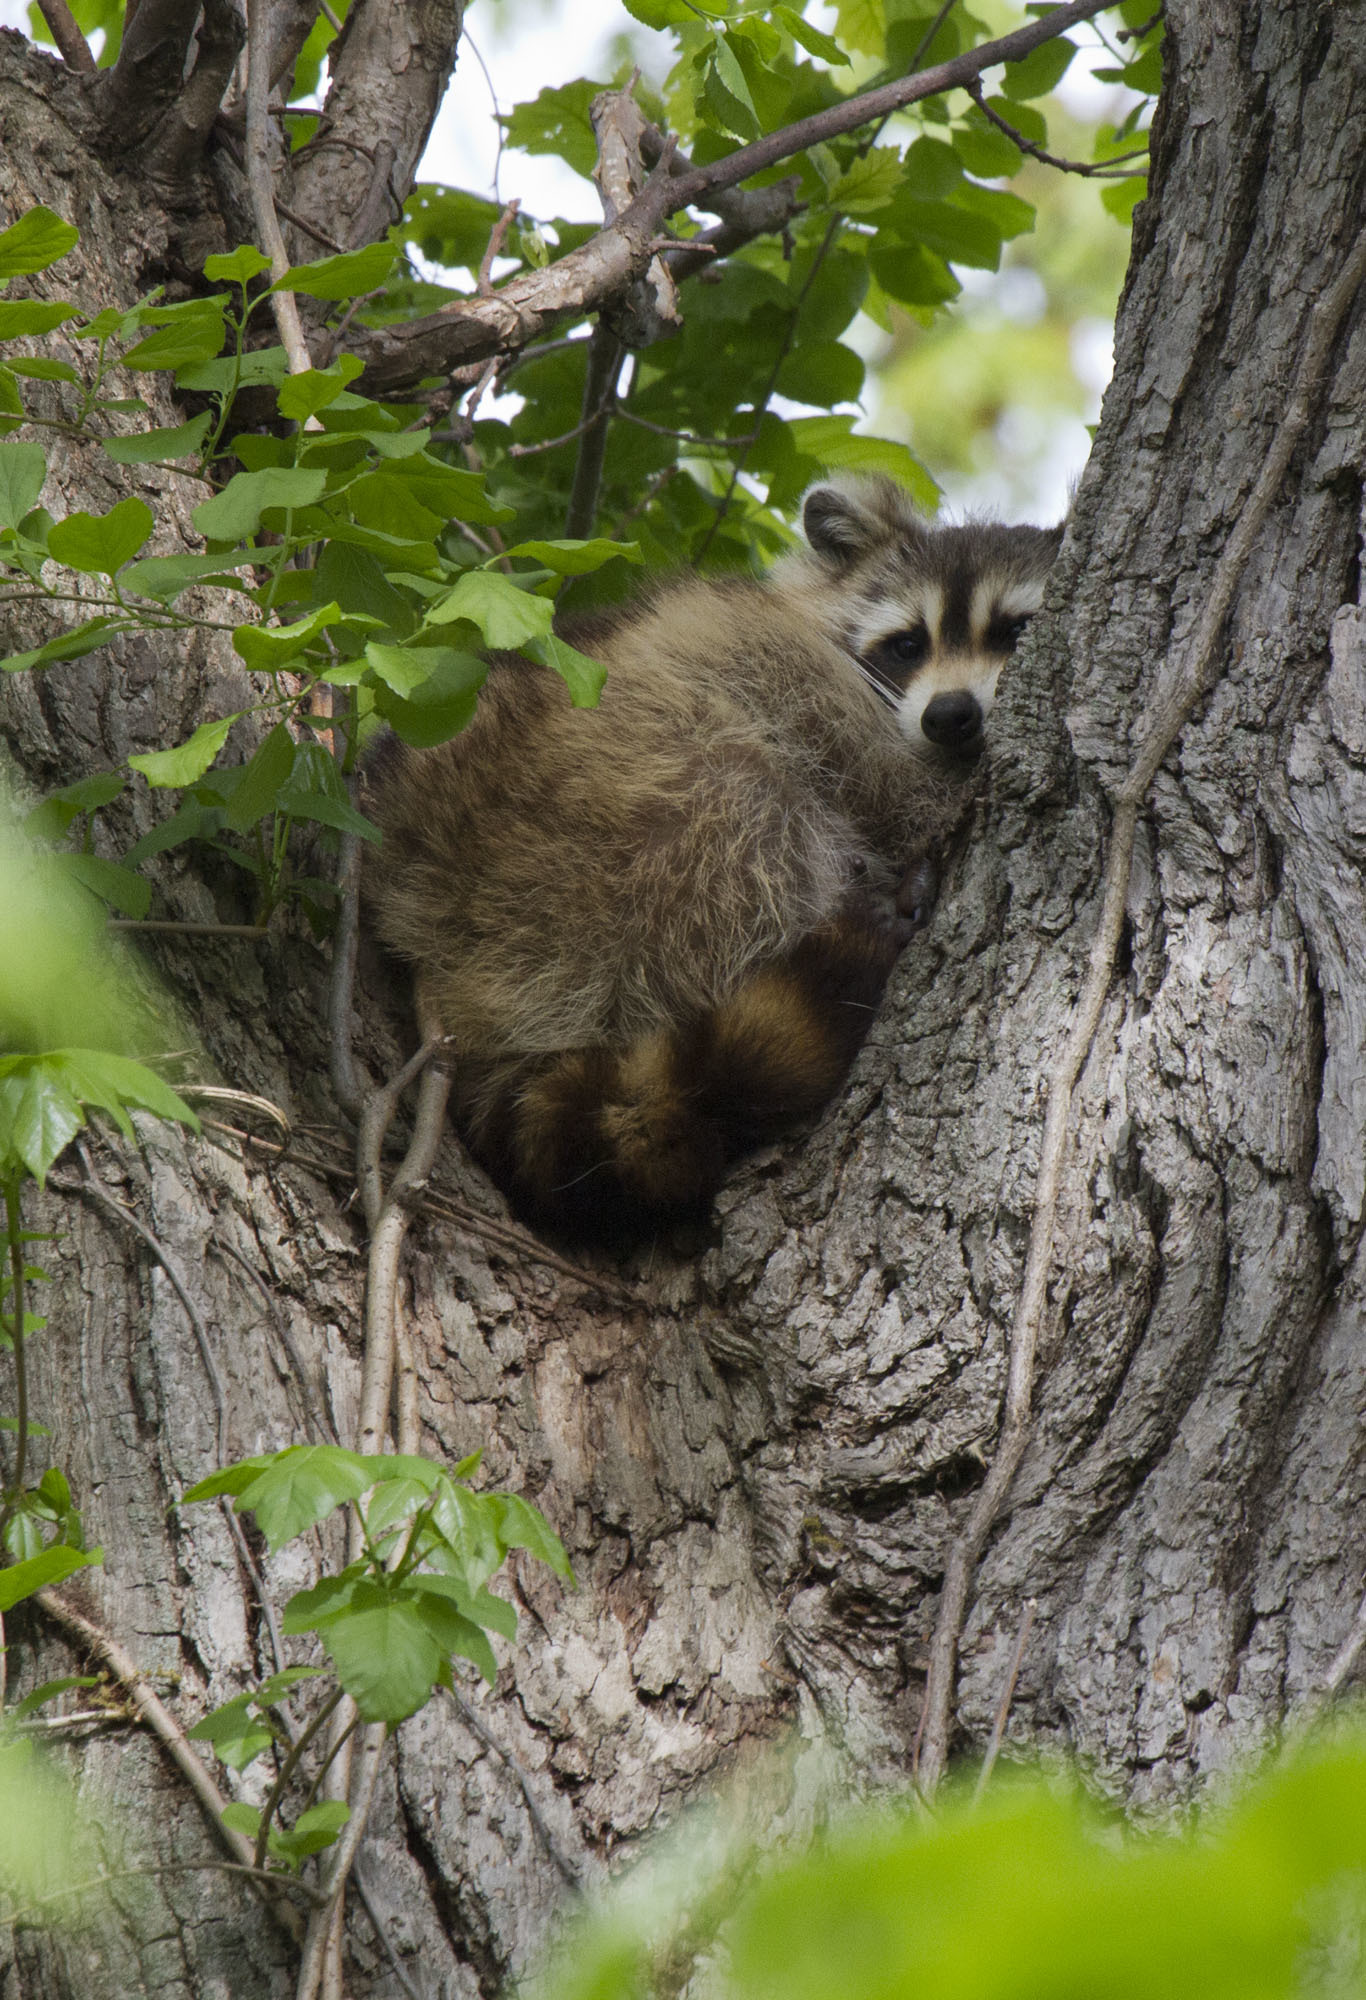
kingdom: Animalia
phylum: Chordata
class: Mammalia
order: Carnivora
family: Procyonidae
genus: Procyon
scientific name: Procyon lotor
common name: Raccoon
